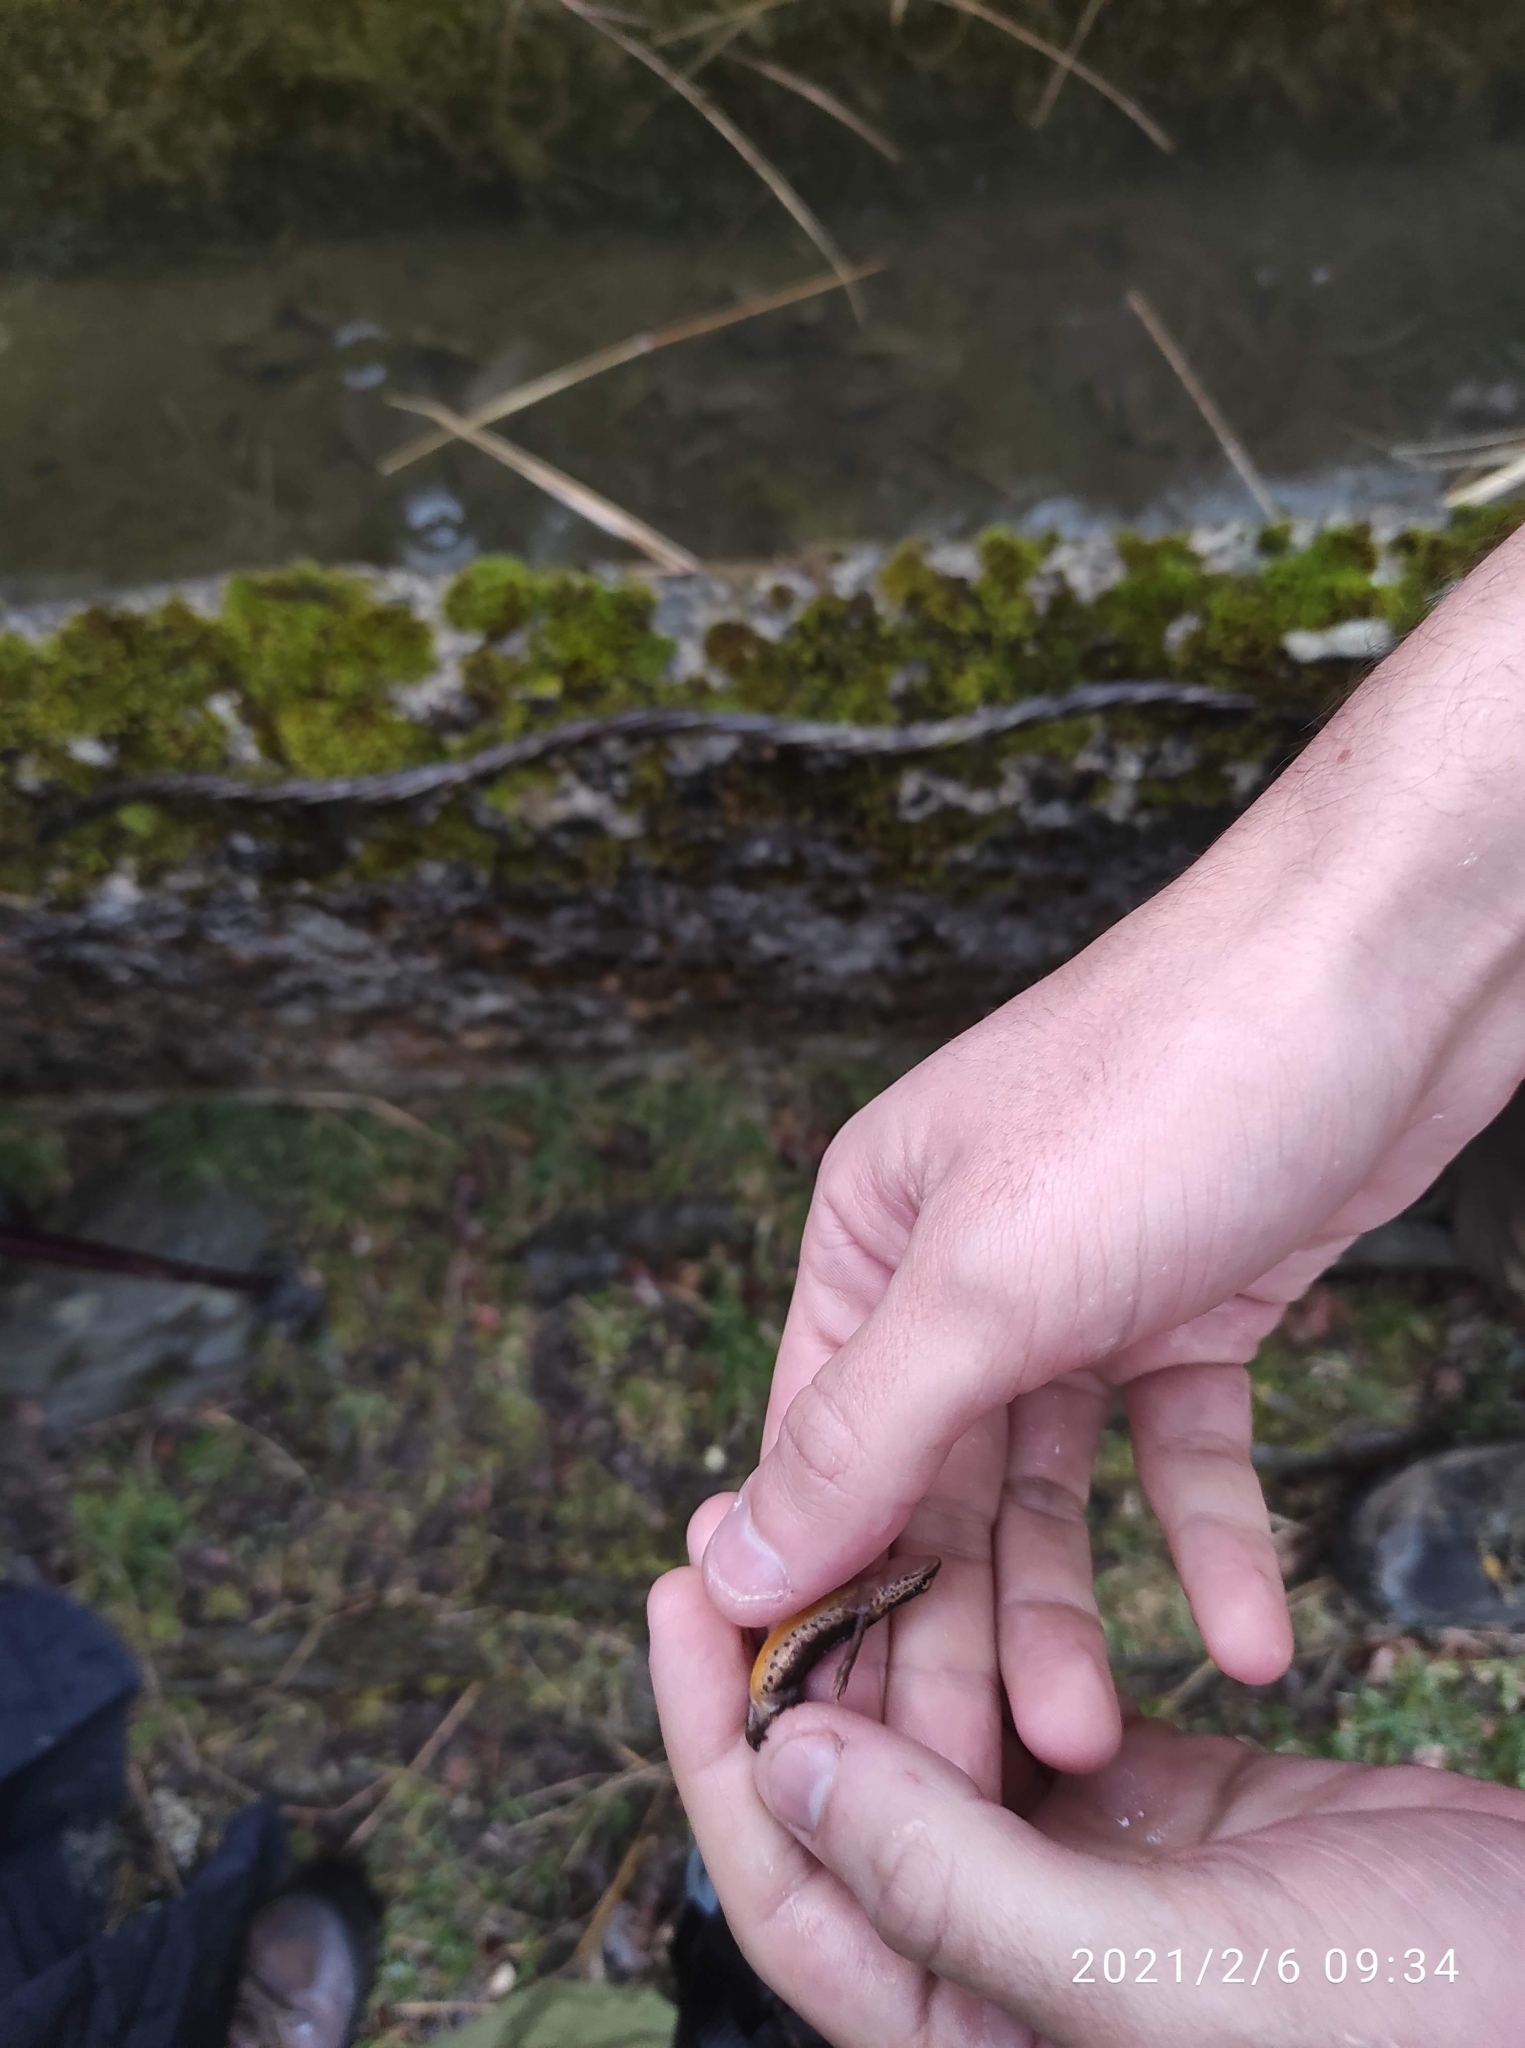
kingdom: Animalia
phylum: Chordata
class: Amphibia
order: Caudata
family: Salamandridae
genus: Lissotriton
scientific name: Lissotriton helveticus
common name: Palmate newt
